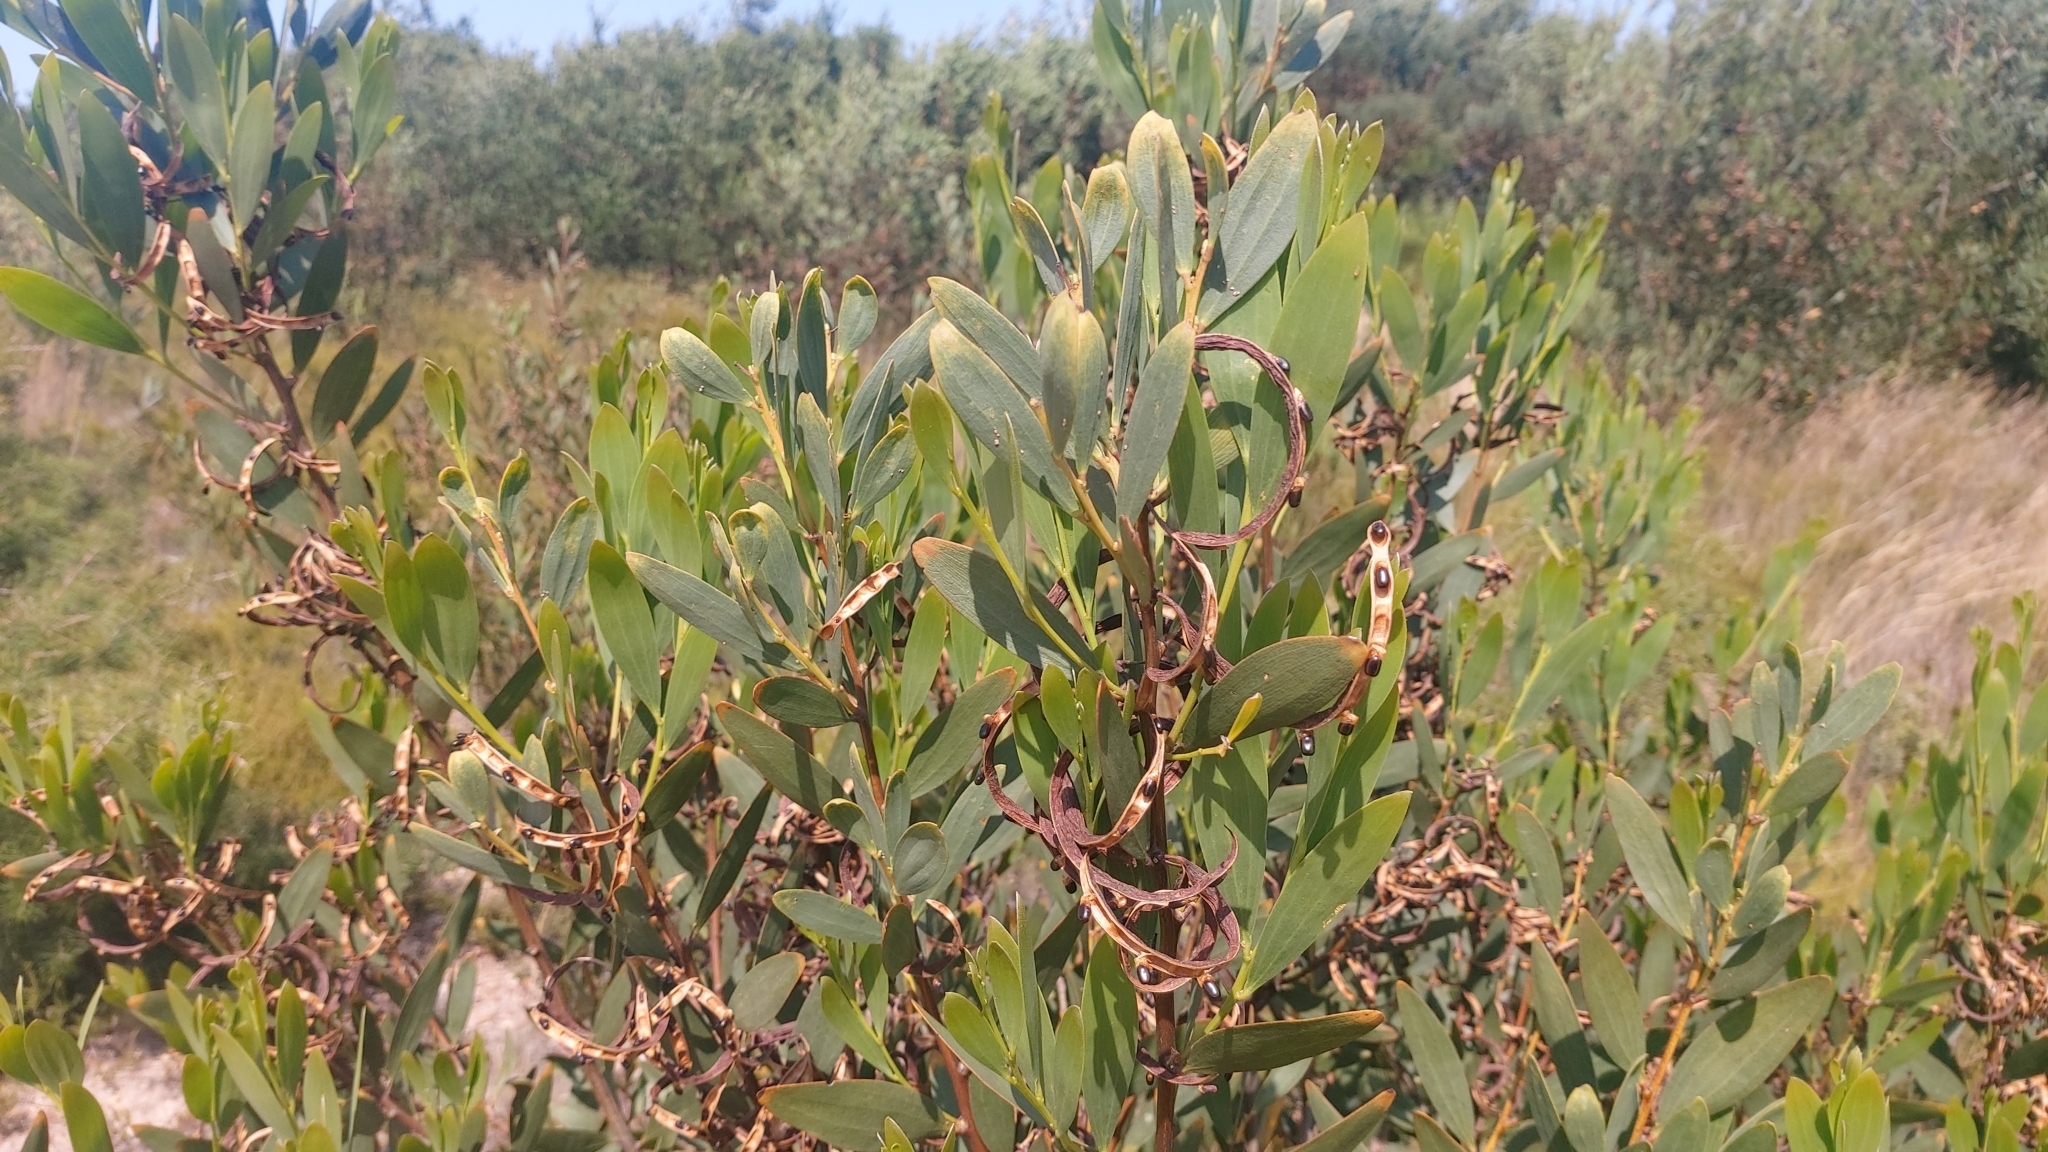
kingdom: Plantae
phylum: Tracheophyta
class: Magnoliopsida
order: Fabales
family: Fabaceae
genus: Acacia
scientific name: Acacia longifolia
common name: Sydney golden wattle
